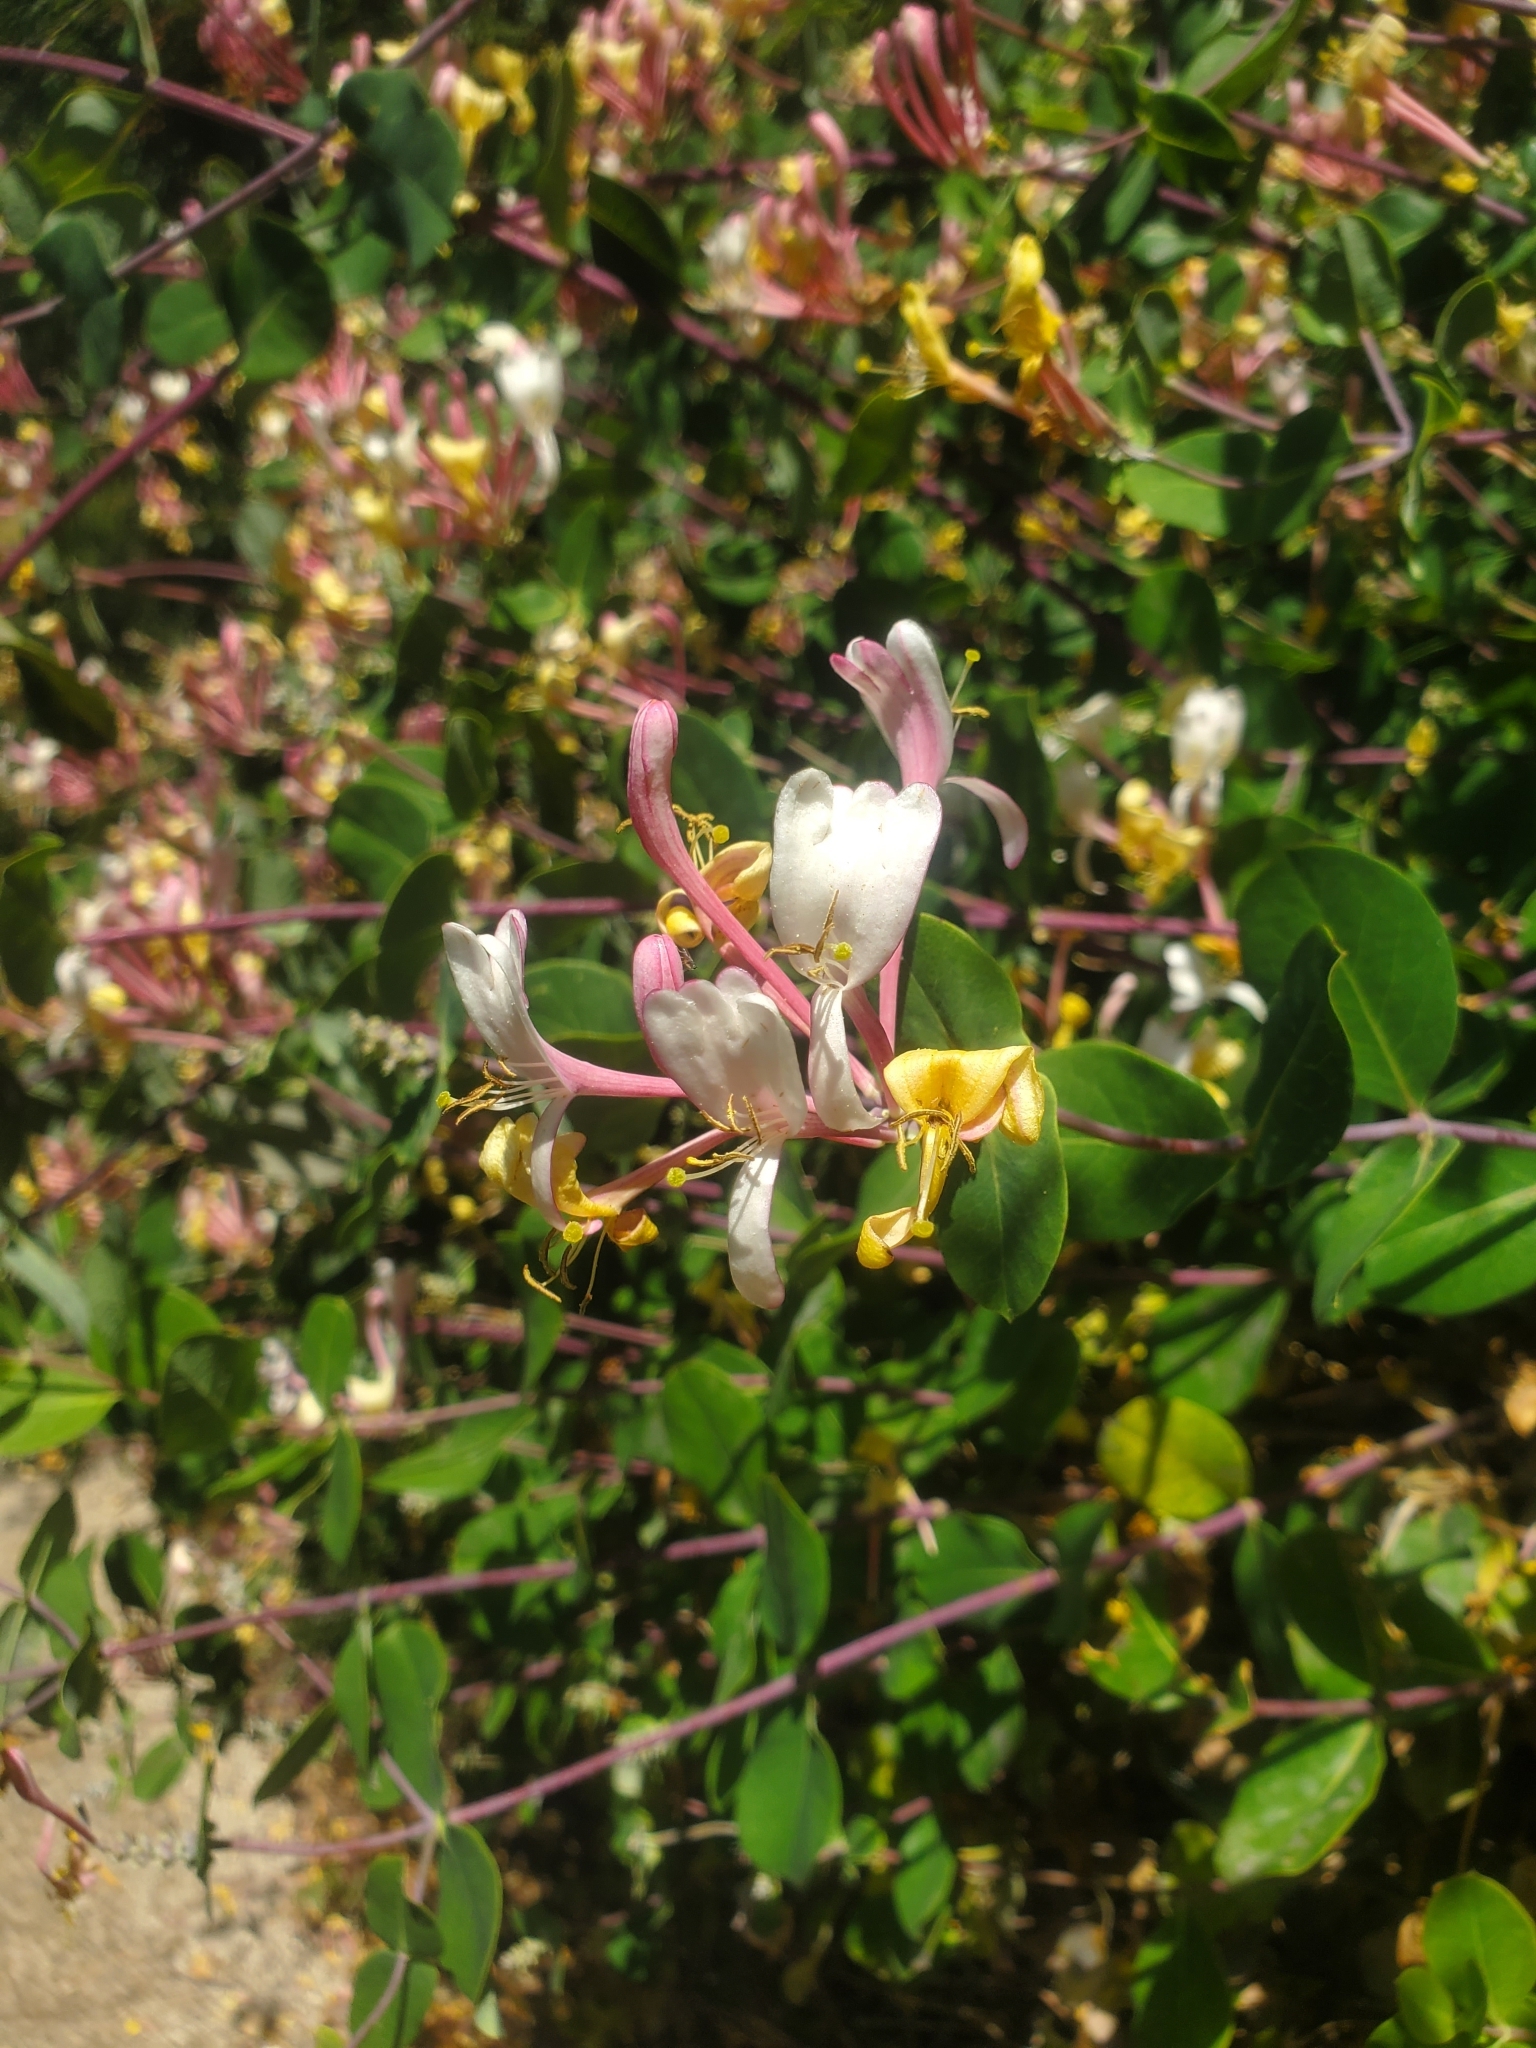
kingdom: Plantae
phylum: Tracheophyta
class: Magnoliopsida
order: Dipsacales
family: Caprifoliaceae
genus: Lonicera
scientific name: Lonicera etrusca
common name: Etruscan honeysuckle
